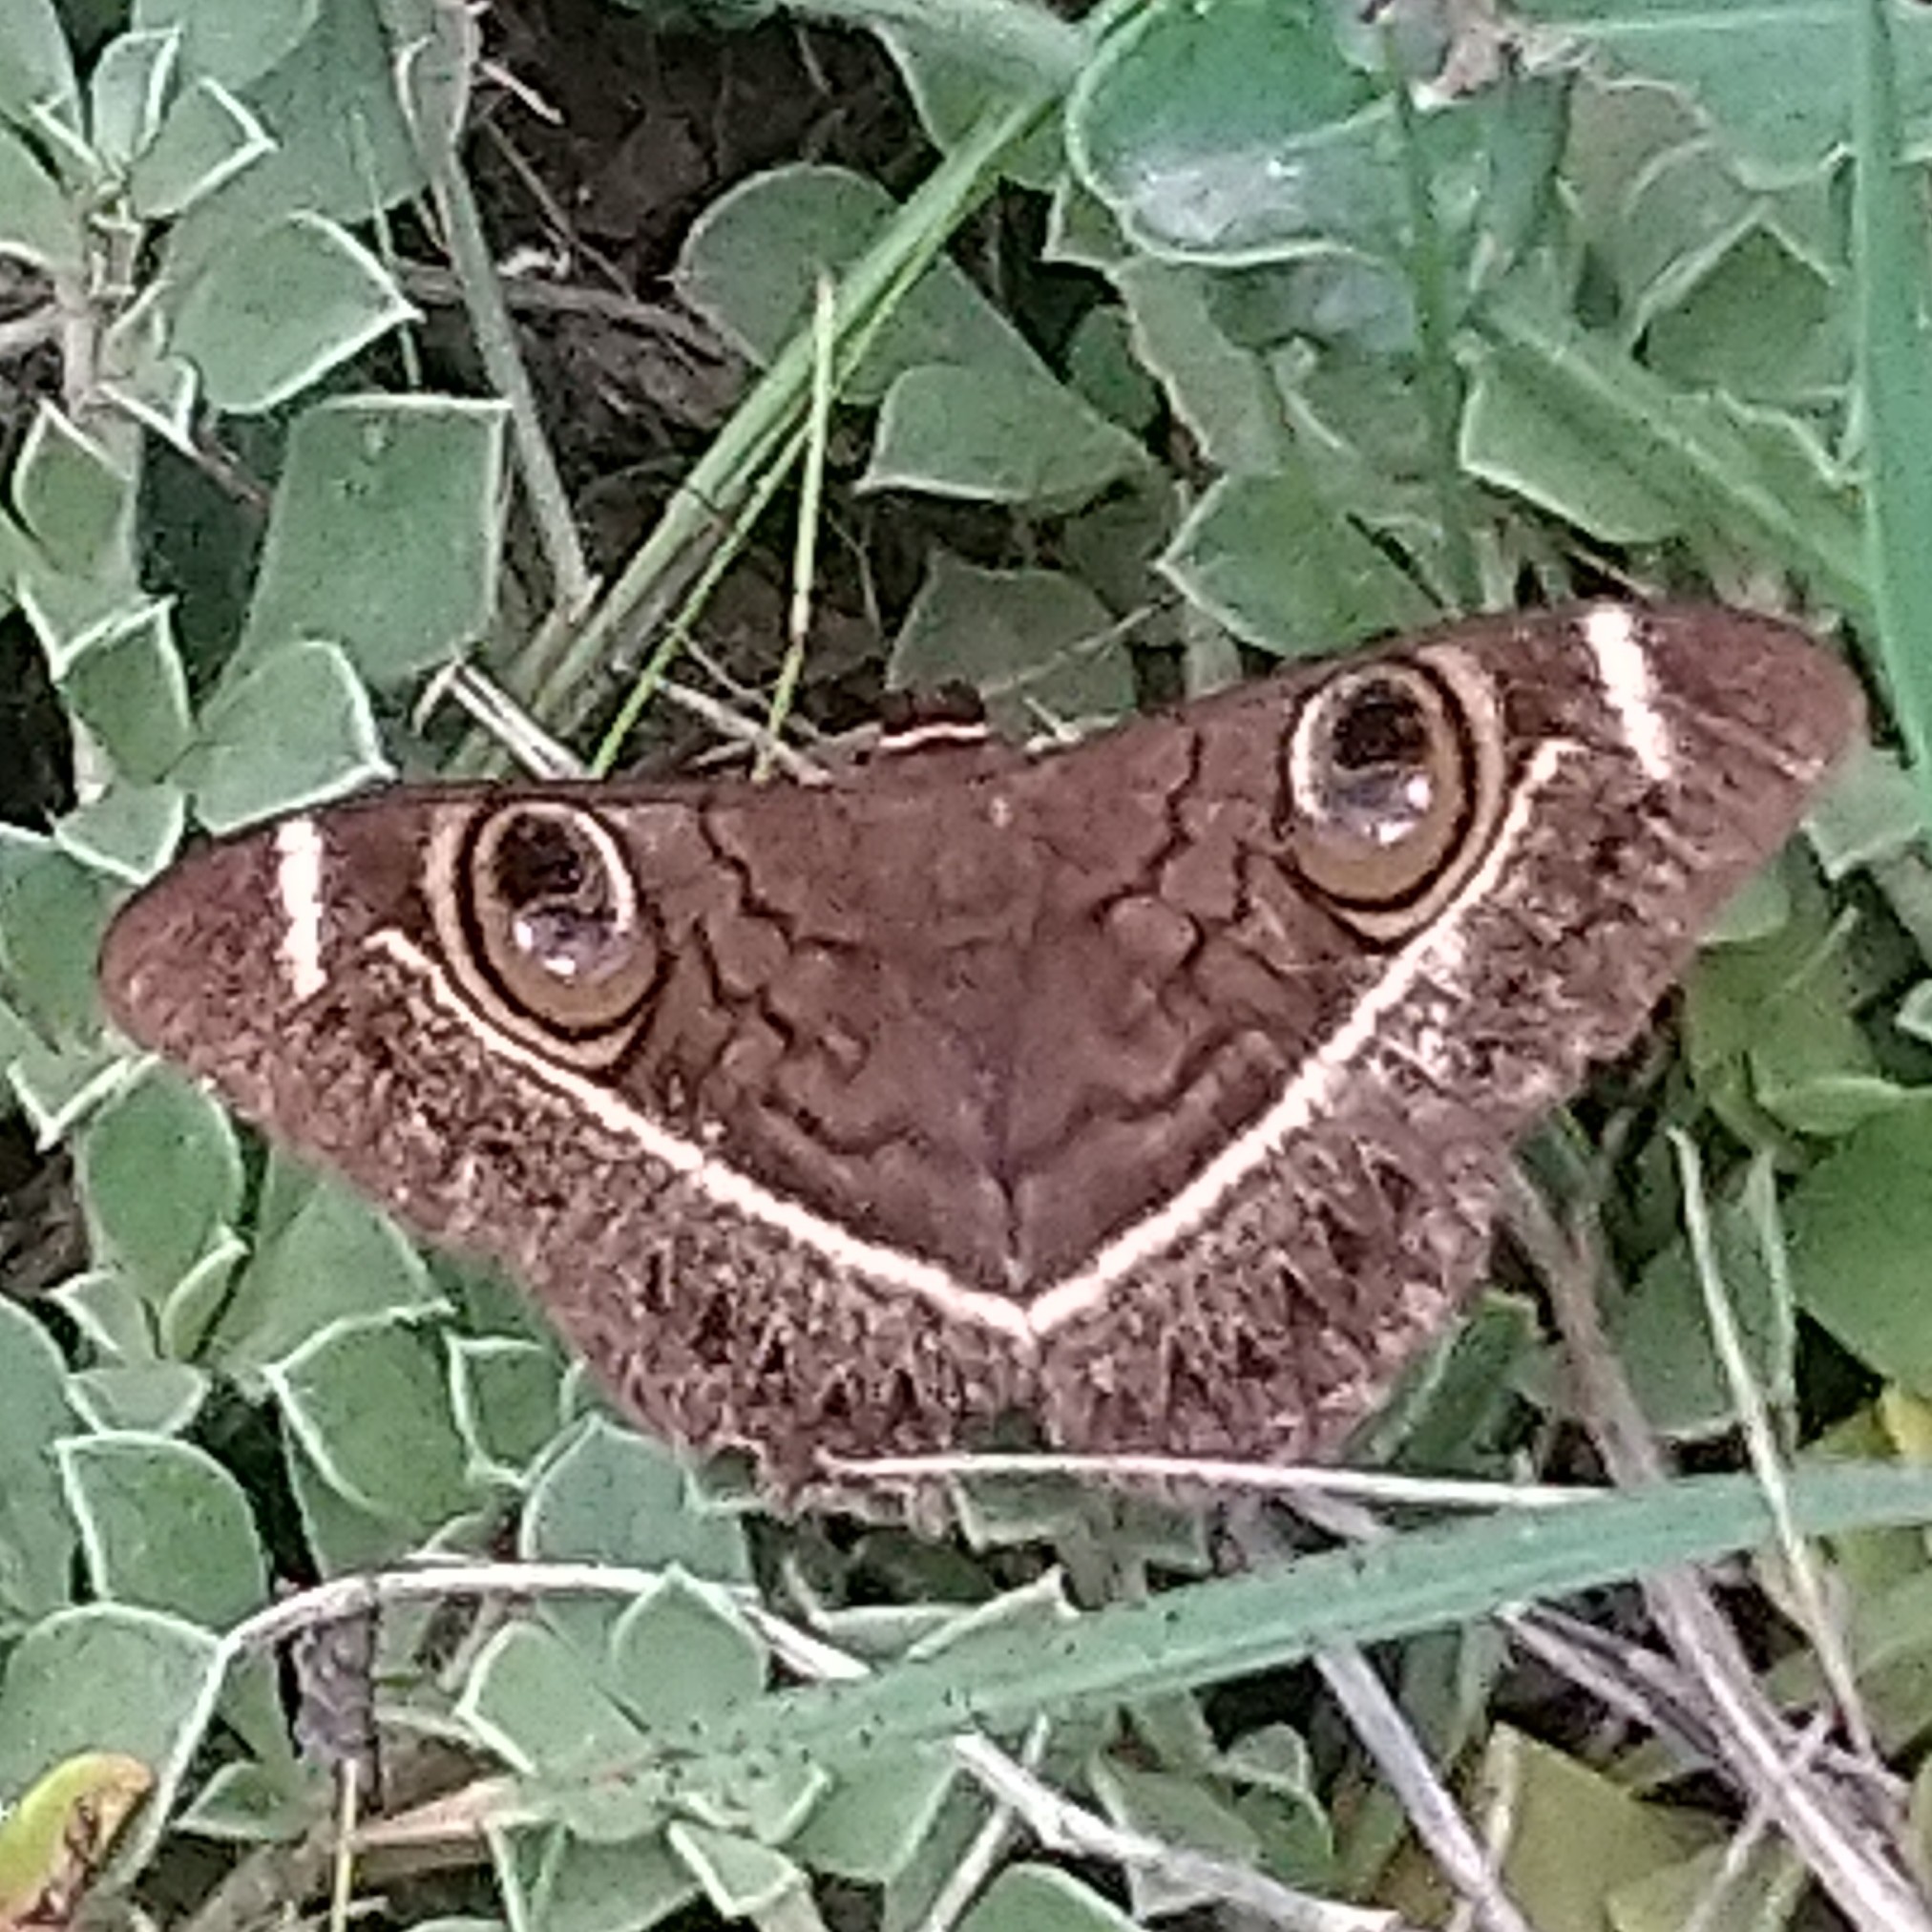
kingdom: Animalia
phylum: Arthropoda
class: Insecta
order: Lepidoptera
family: Erebidae
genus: Cyligramma
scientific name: Cyligramma latona
